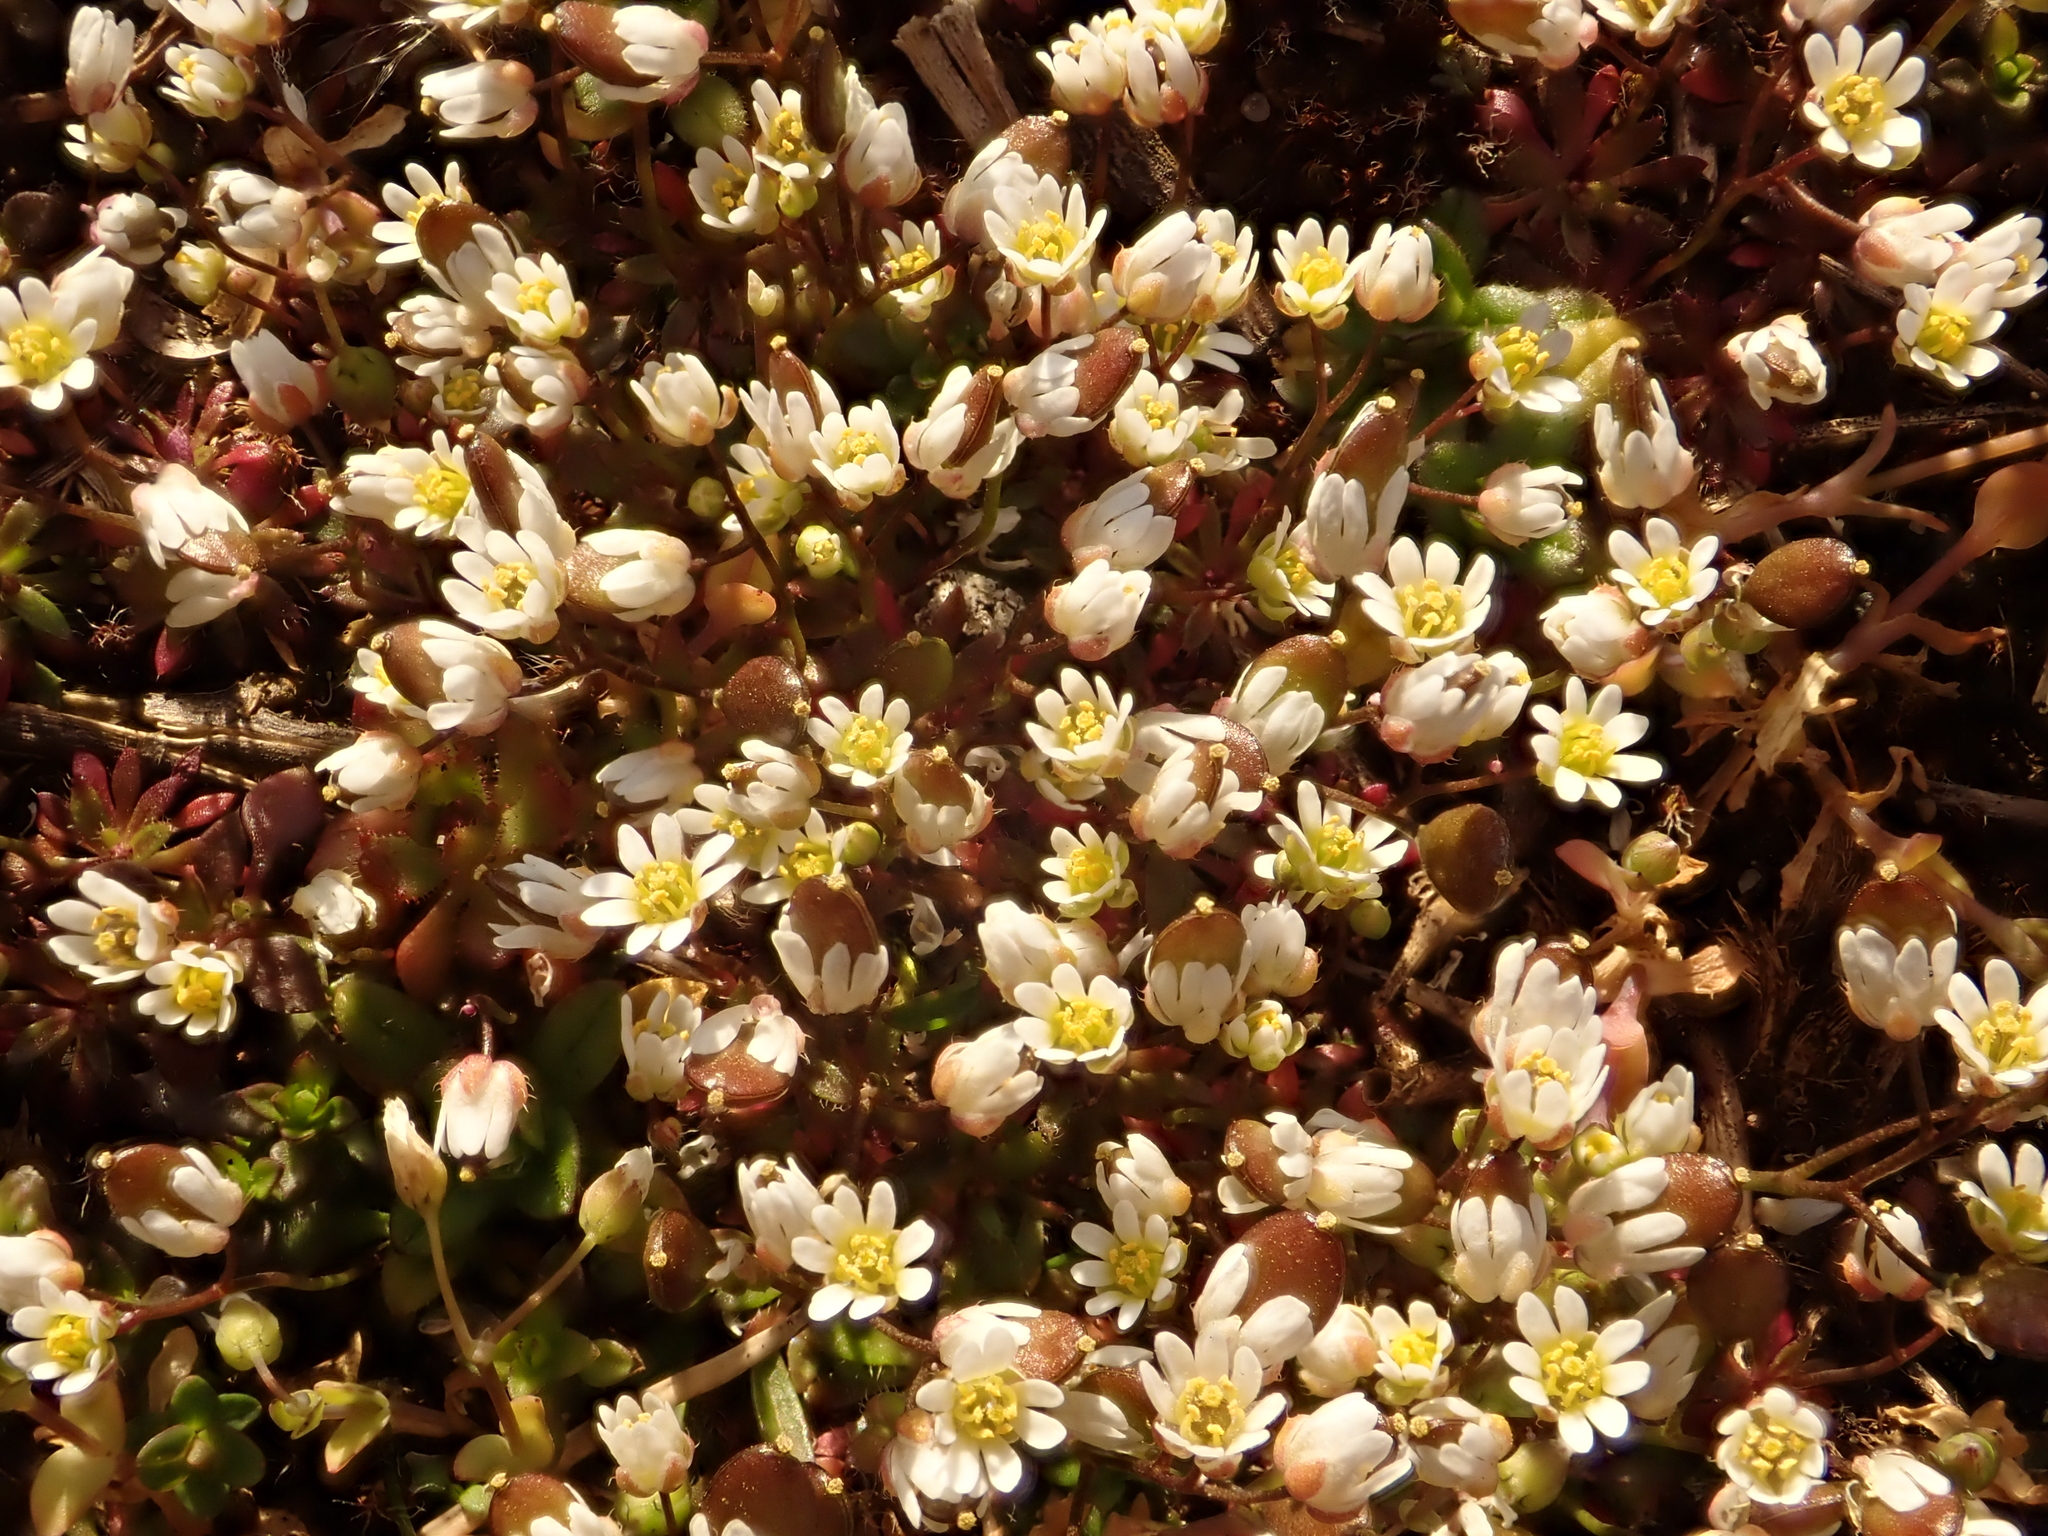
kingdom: Plantae
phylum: Tracheophyta
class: Magnoliopsida
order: Brassicales
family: Brassicaceae
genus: Draba
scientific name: Draba verna
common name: Spring draba
